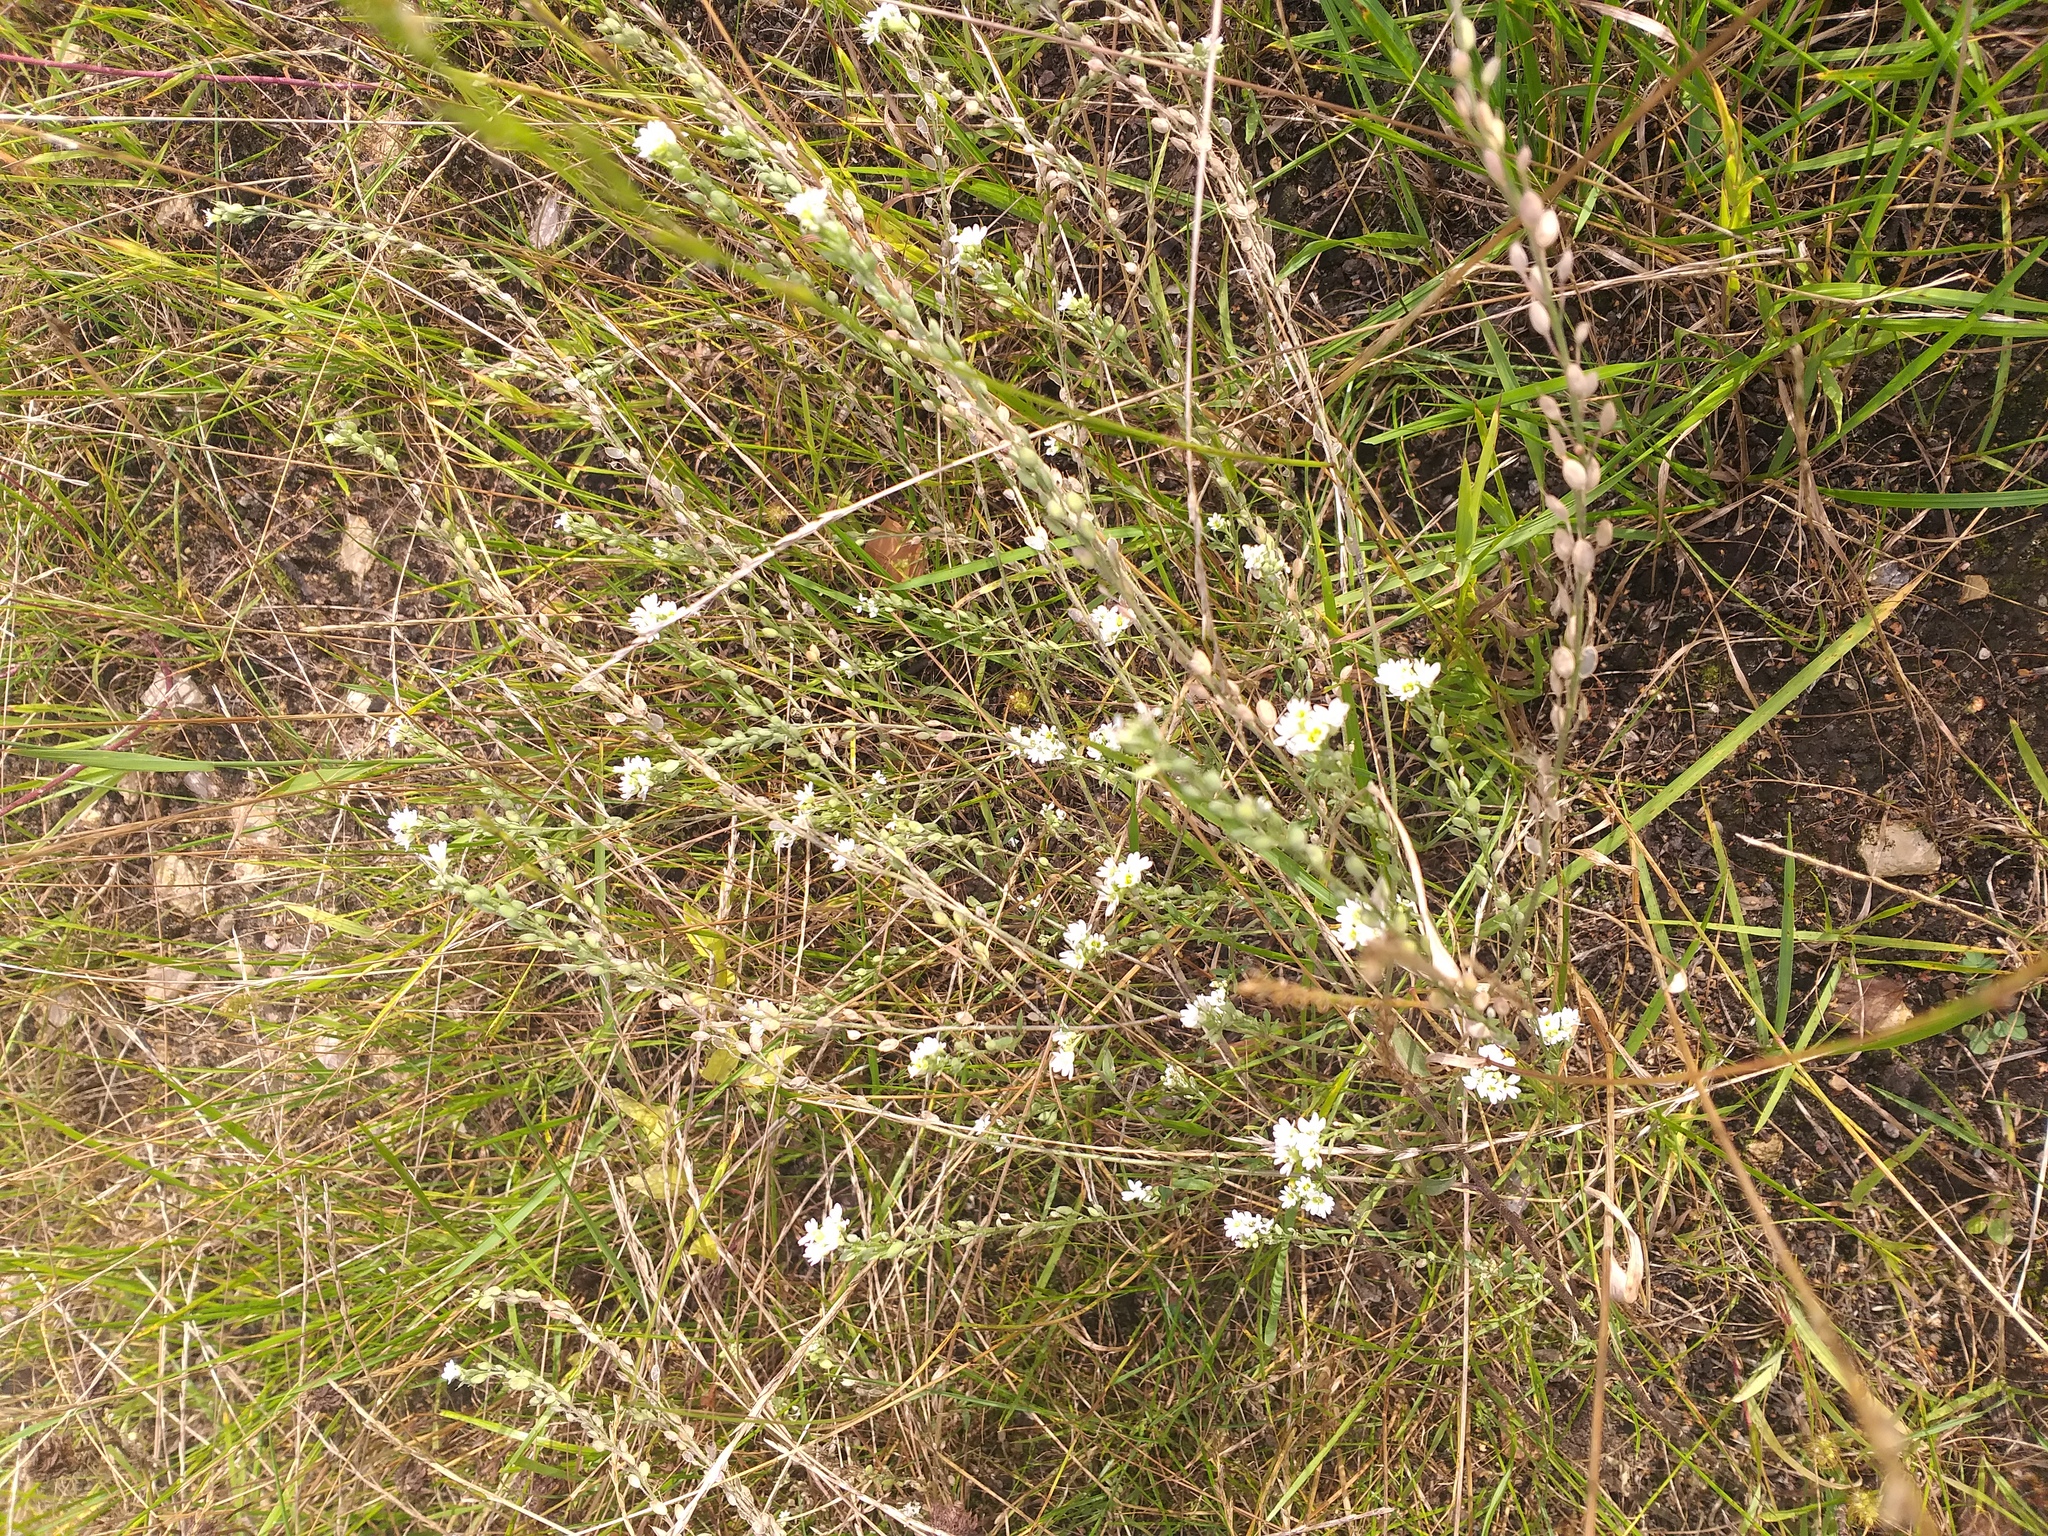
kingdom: Plantae
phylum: Tracheophyta
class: Magnoliopsida
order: Brassicales
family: Brassicaceae
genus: Berteroa
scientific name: Berteroa incana
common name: Hoary alison
